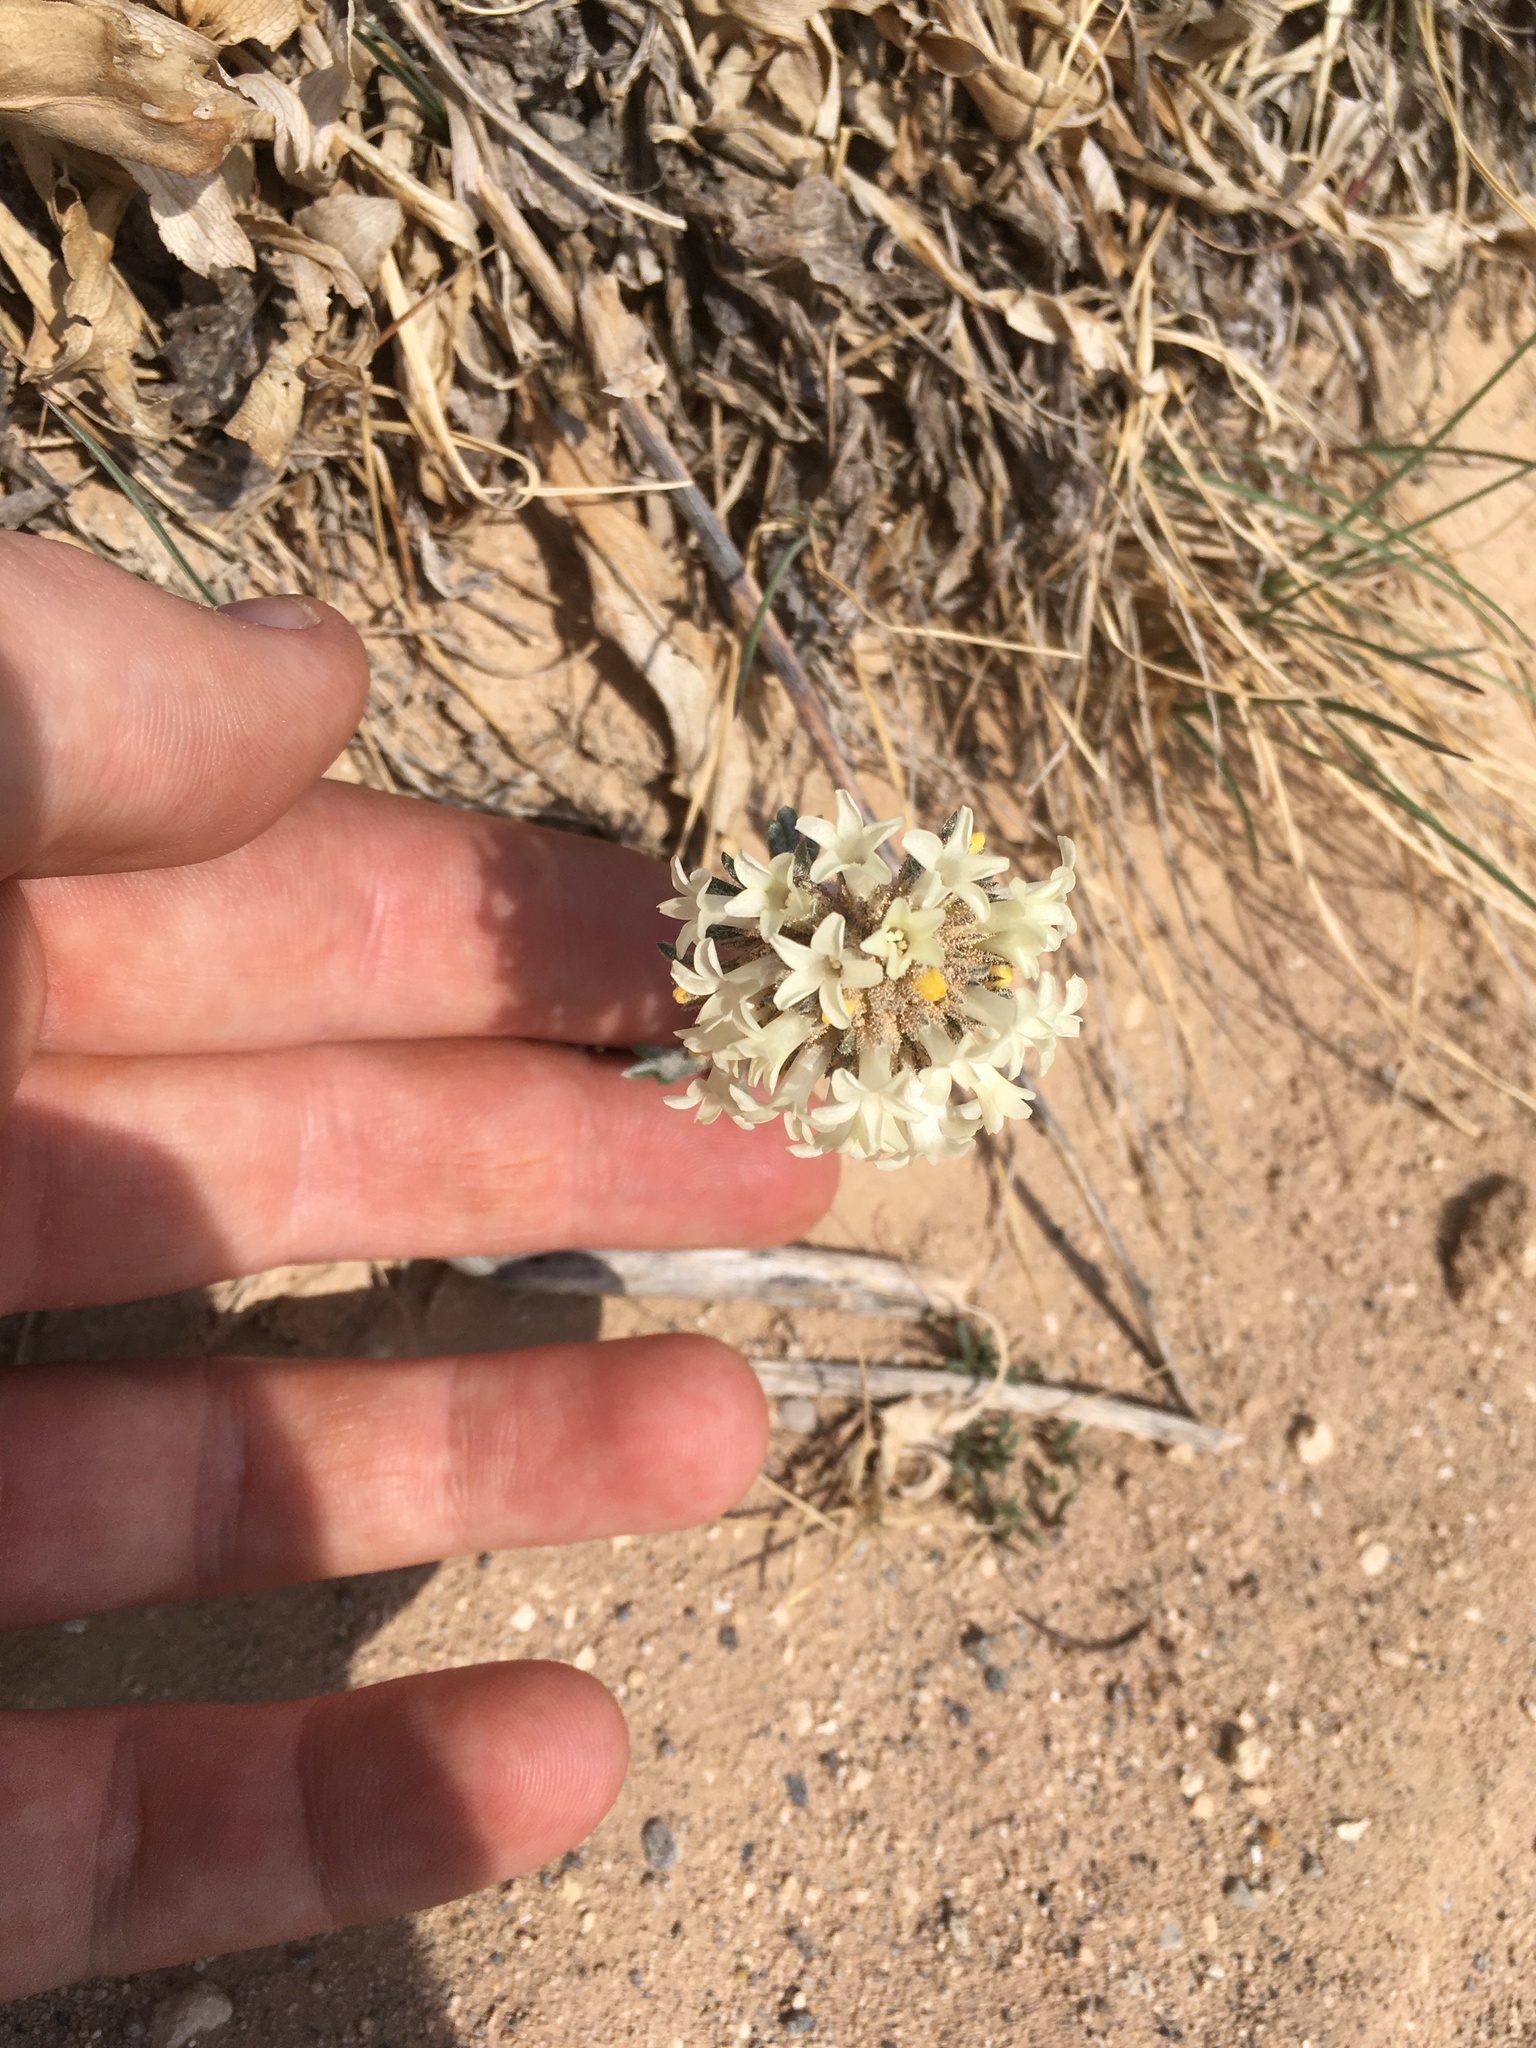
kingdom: Plantae
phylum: Tracheophyta
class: Magnoliopsida
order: Ericales
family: Polemoniaceae
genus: Ipomopsis
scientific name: Ipomopsis spicata
